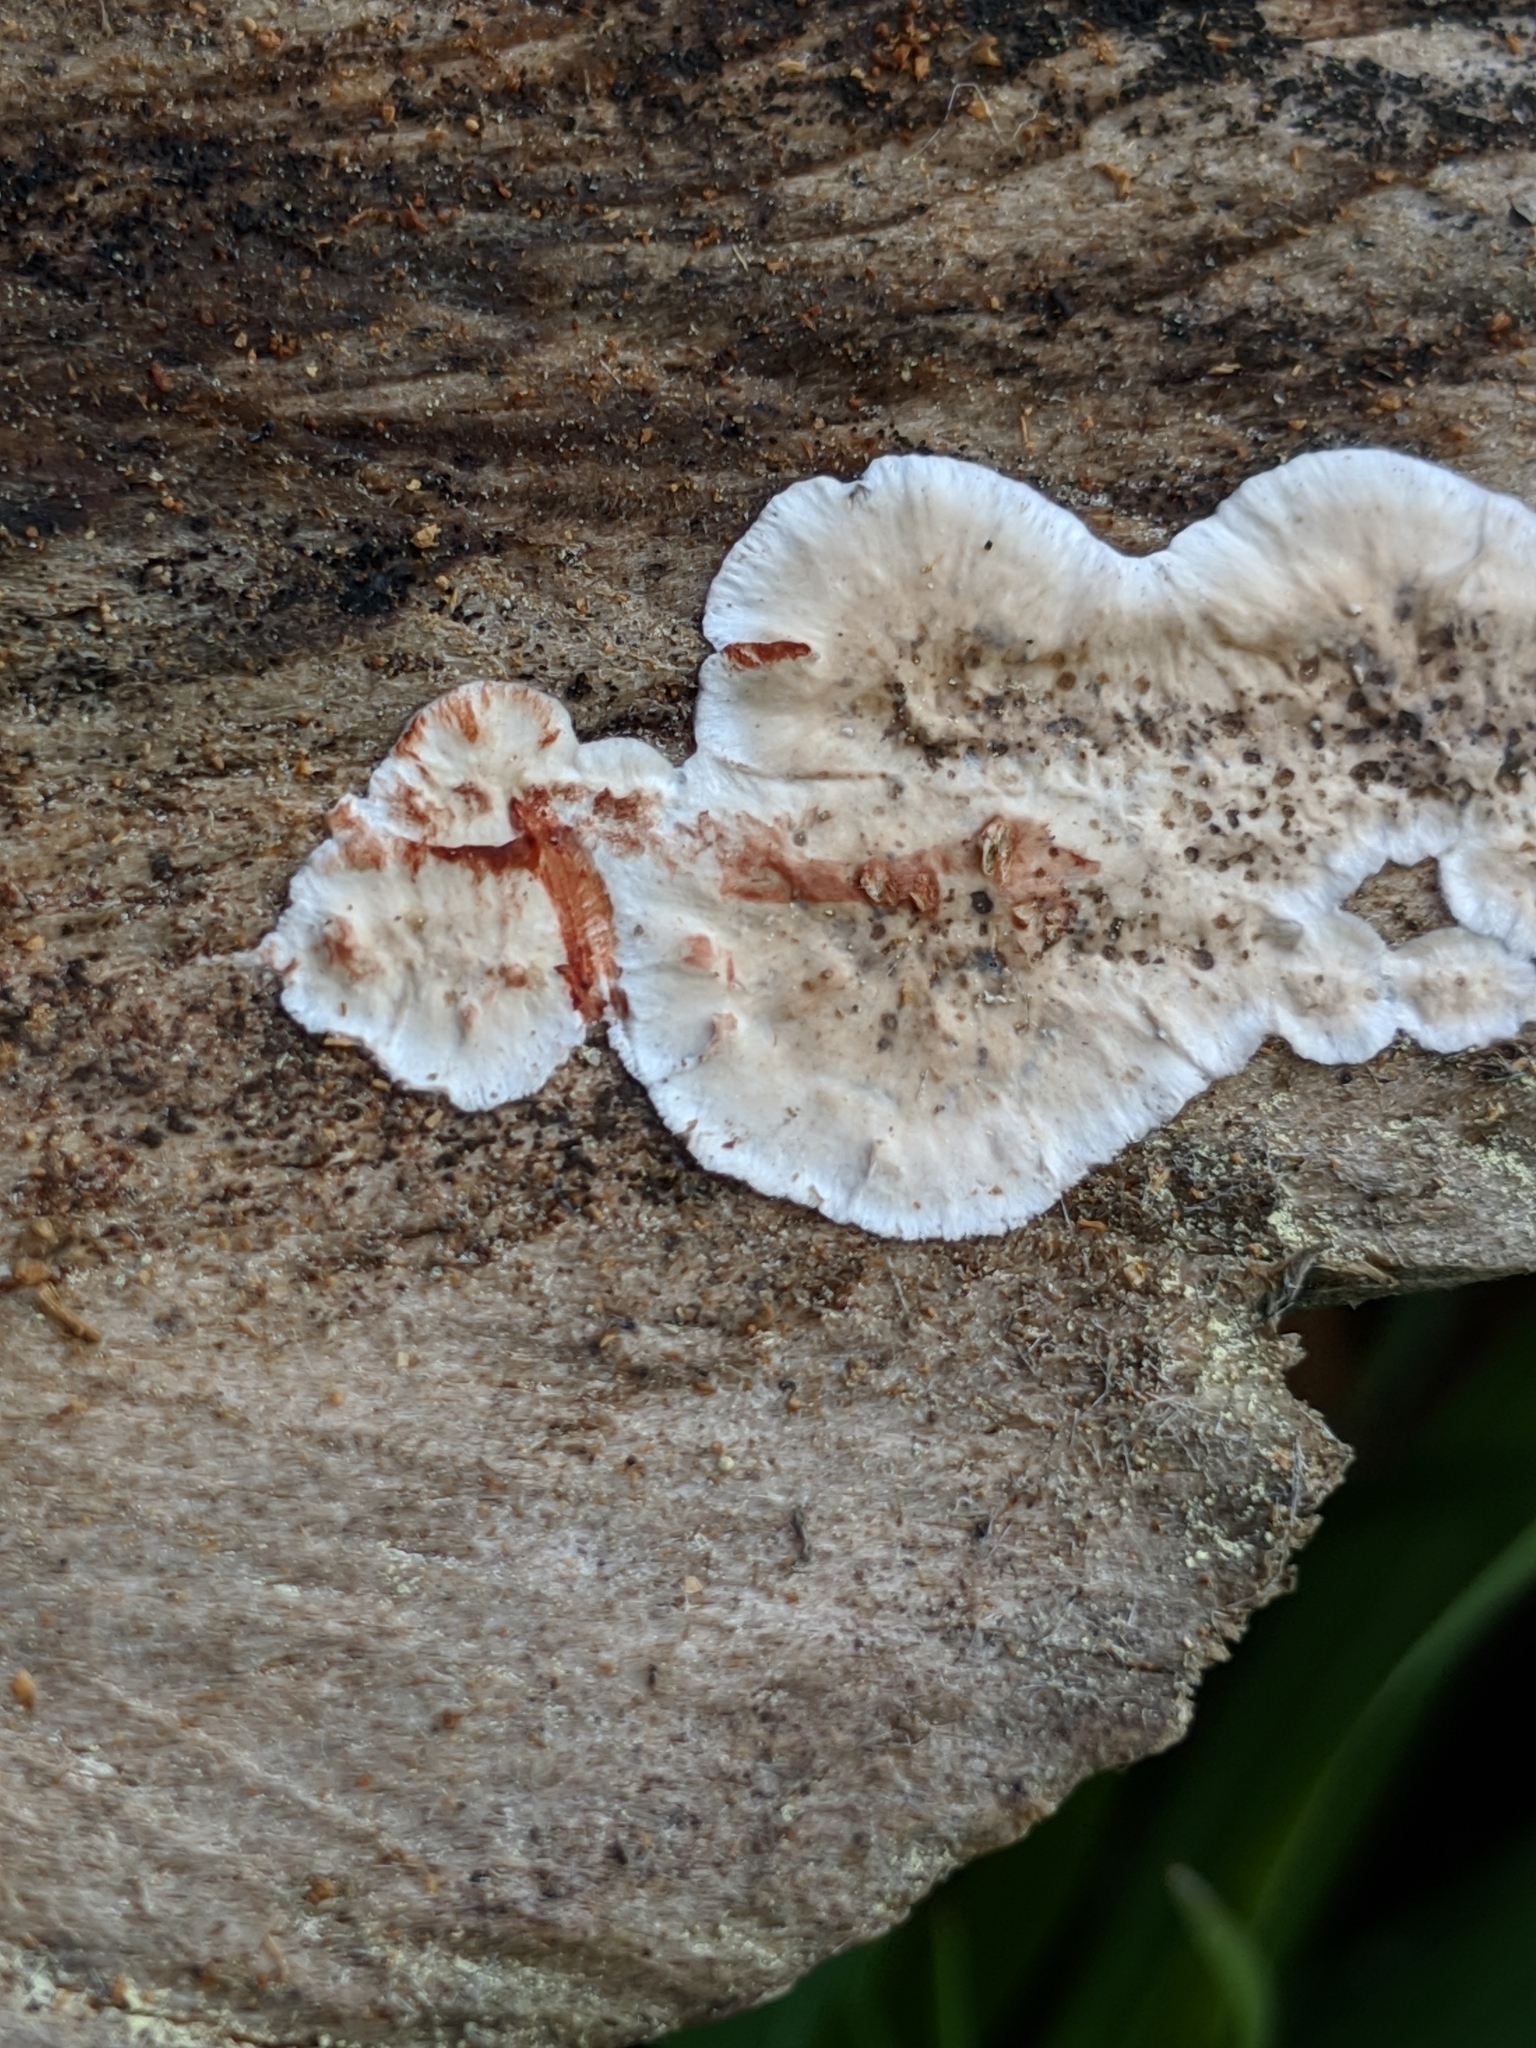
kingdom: Fungi
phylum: Basidiomycota
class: Agaricomycetes
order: Russulales
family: Stereaceae
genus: Stereum
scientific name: Stereum sanguinolentum
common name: Bleeding conifer crust
